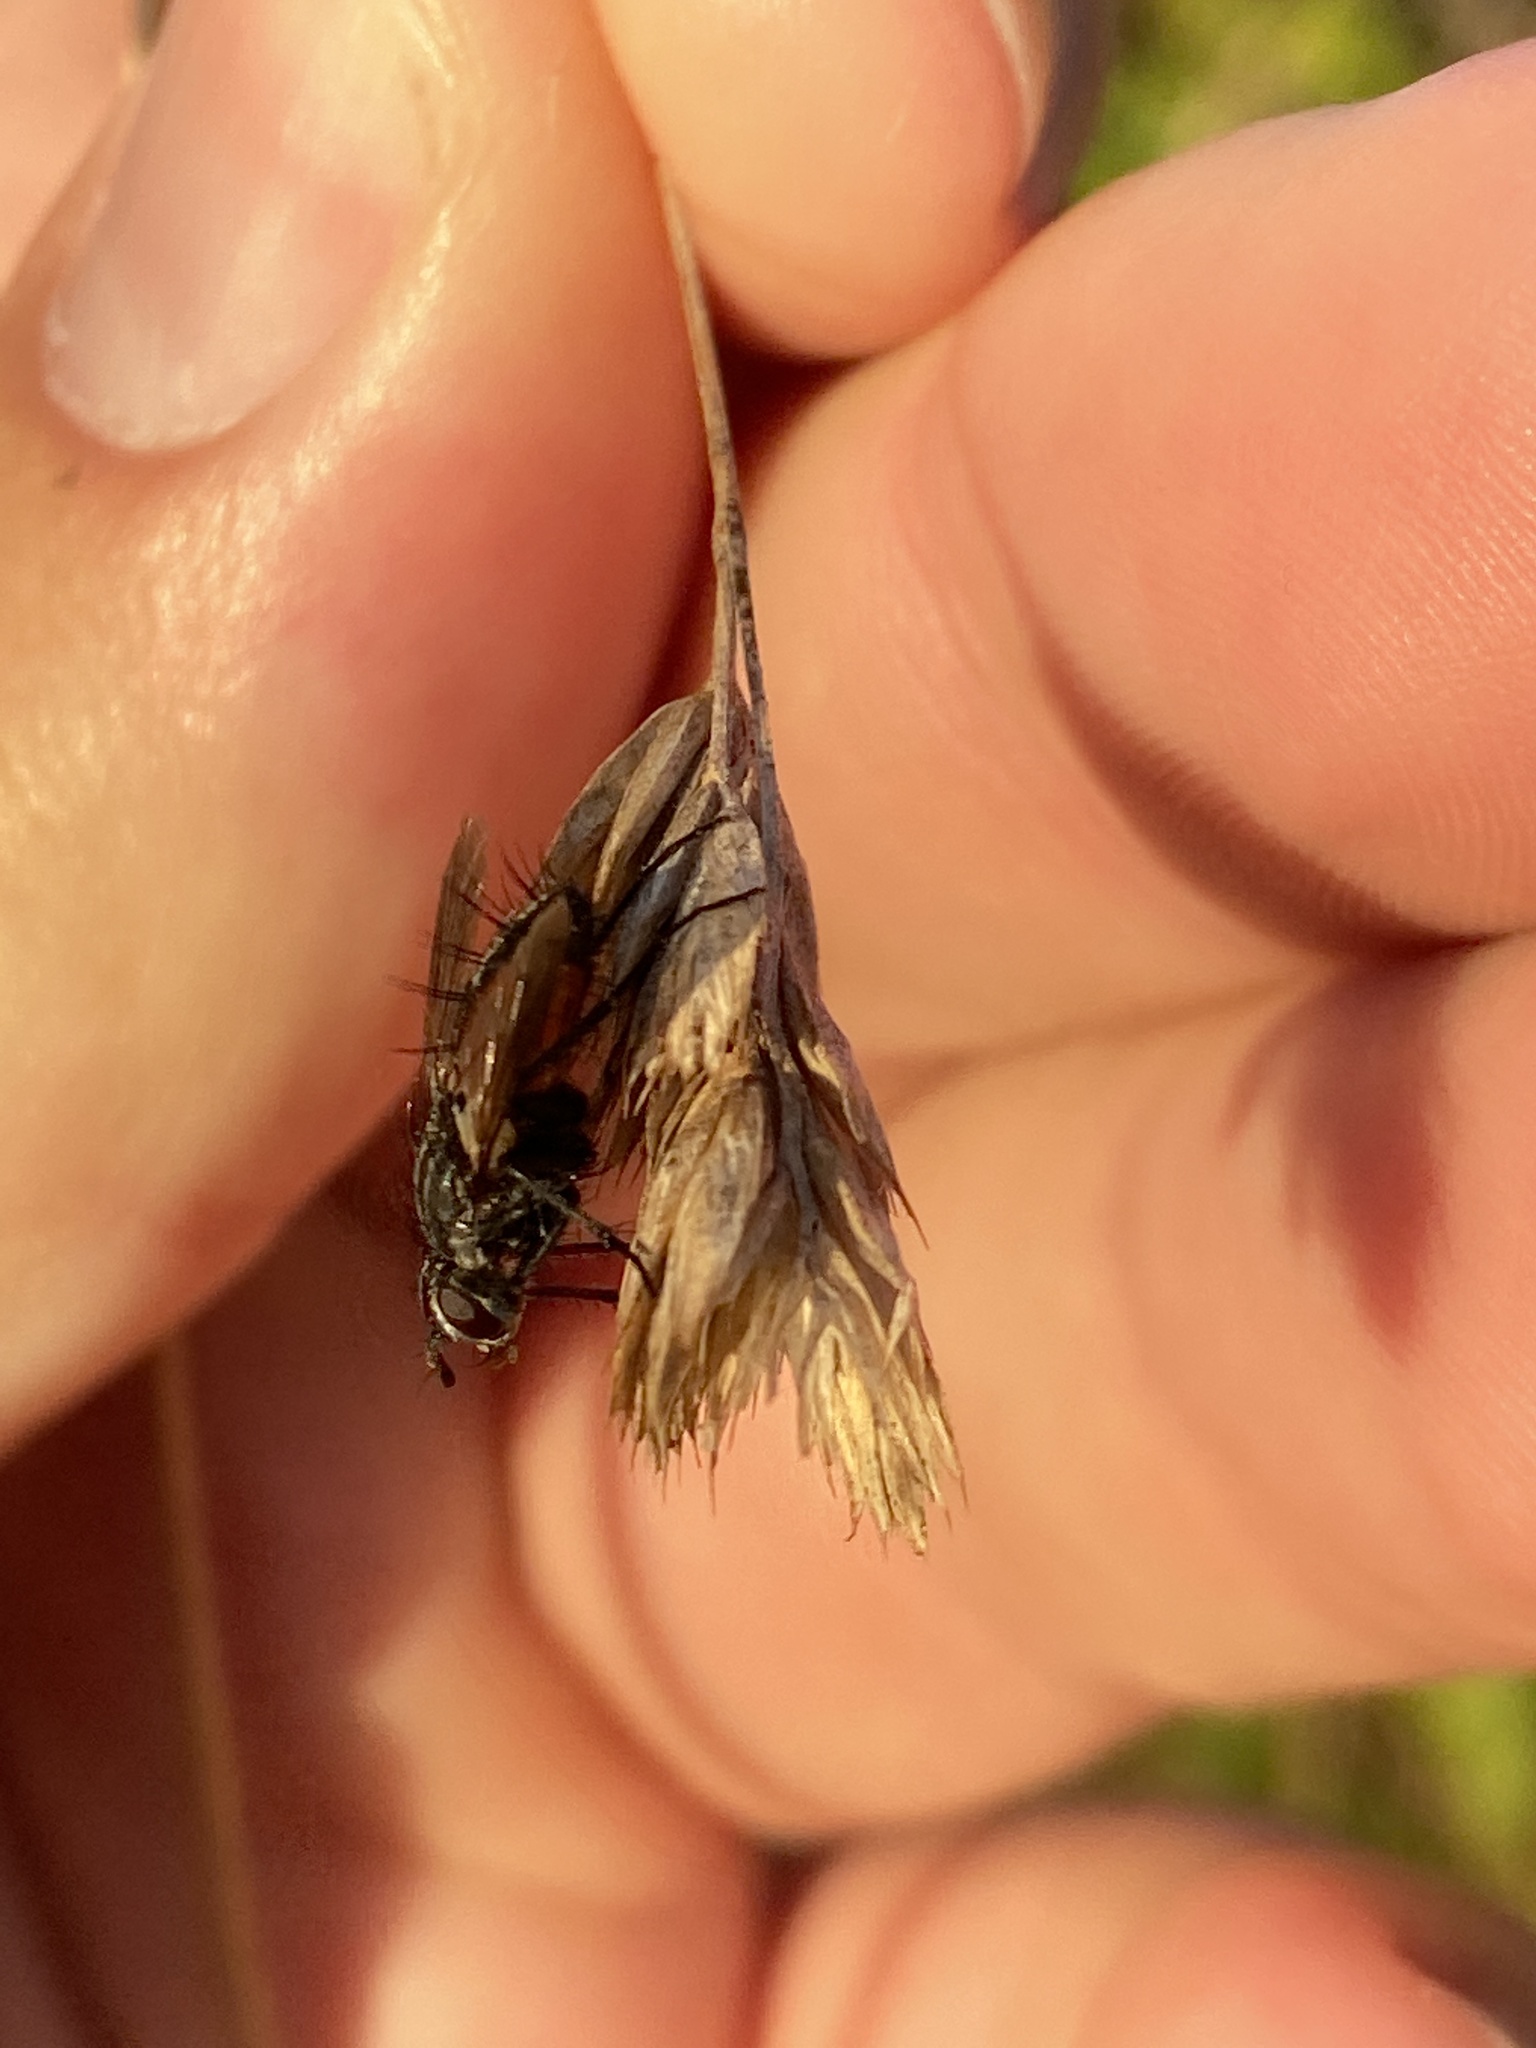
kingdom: Animalia
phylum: Arthropoda
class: Insecta
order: Diptera
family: Tachinidae
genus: Eriothrix
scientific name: Eriothrix rufomaculatus
